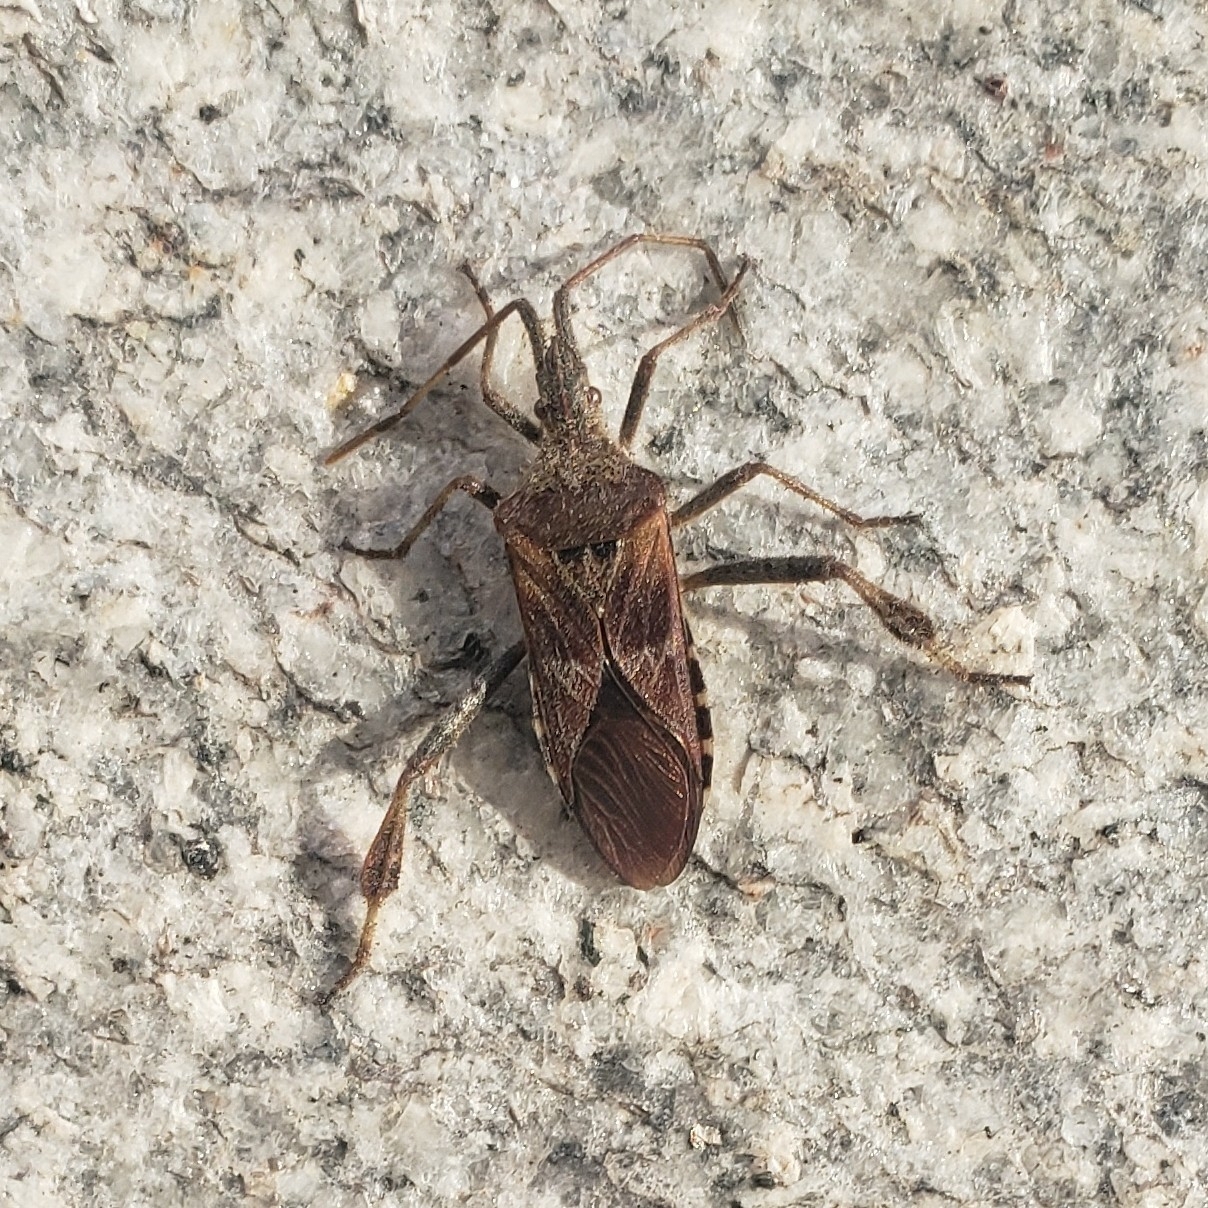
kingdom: Animalia
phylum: Arthropoda
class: Insecta
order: Hemiptera
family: Coreidae
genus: Leptoglossus
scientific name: Leptoglossus occidentalis
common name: Western conifer-seed bug
